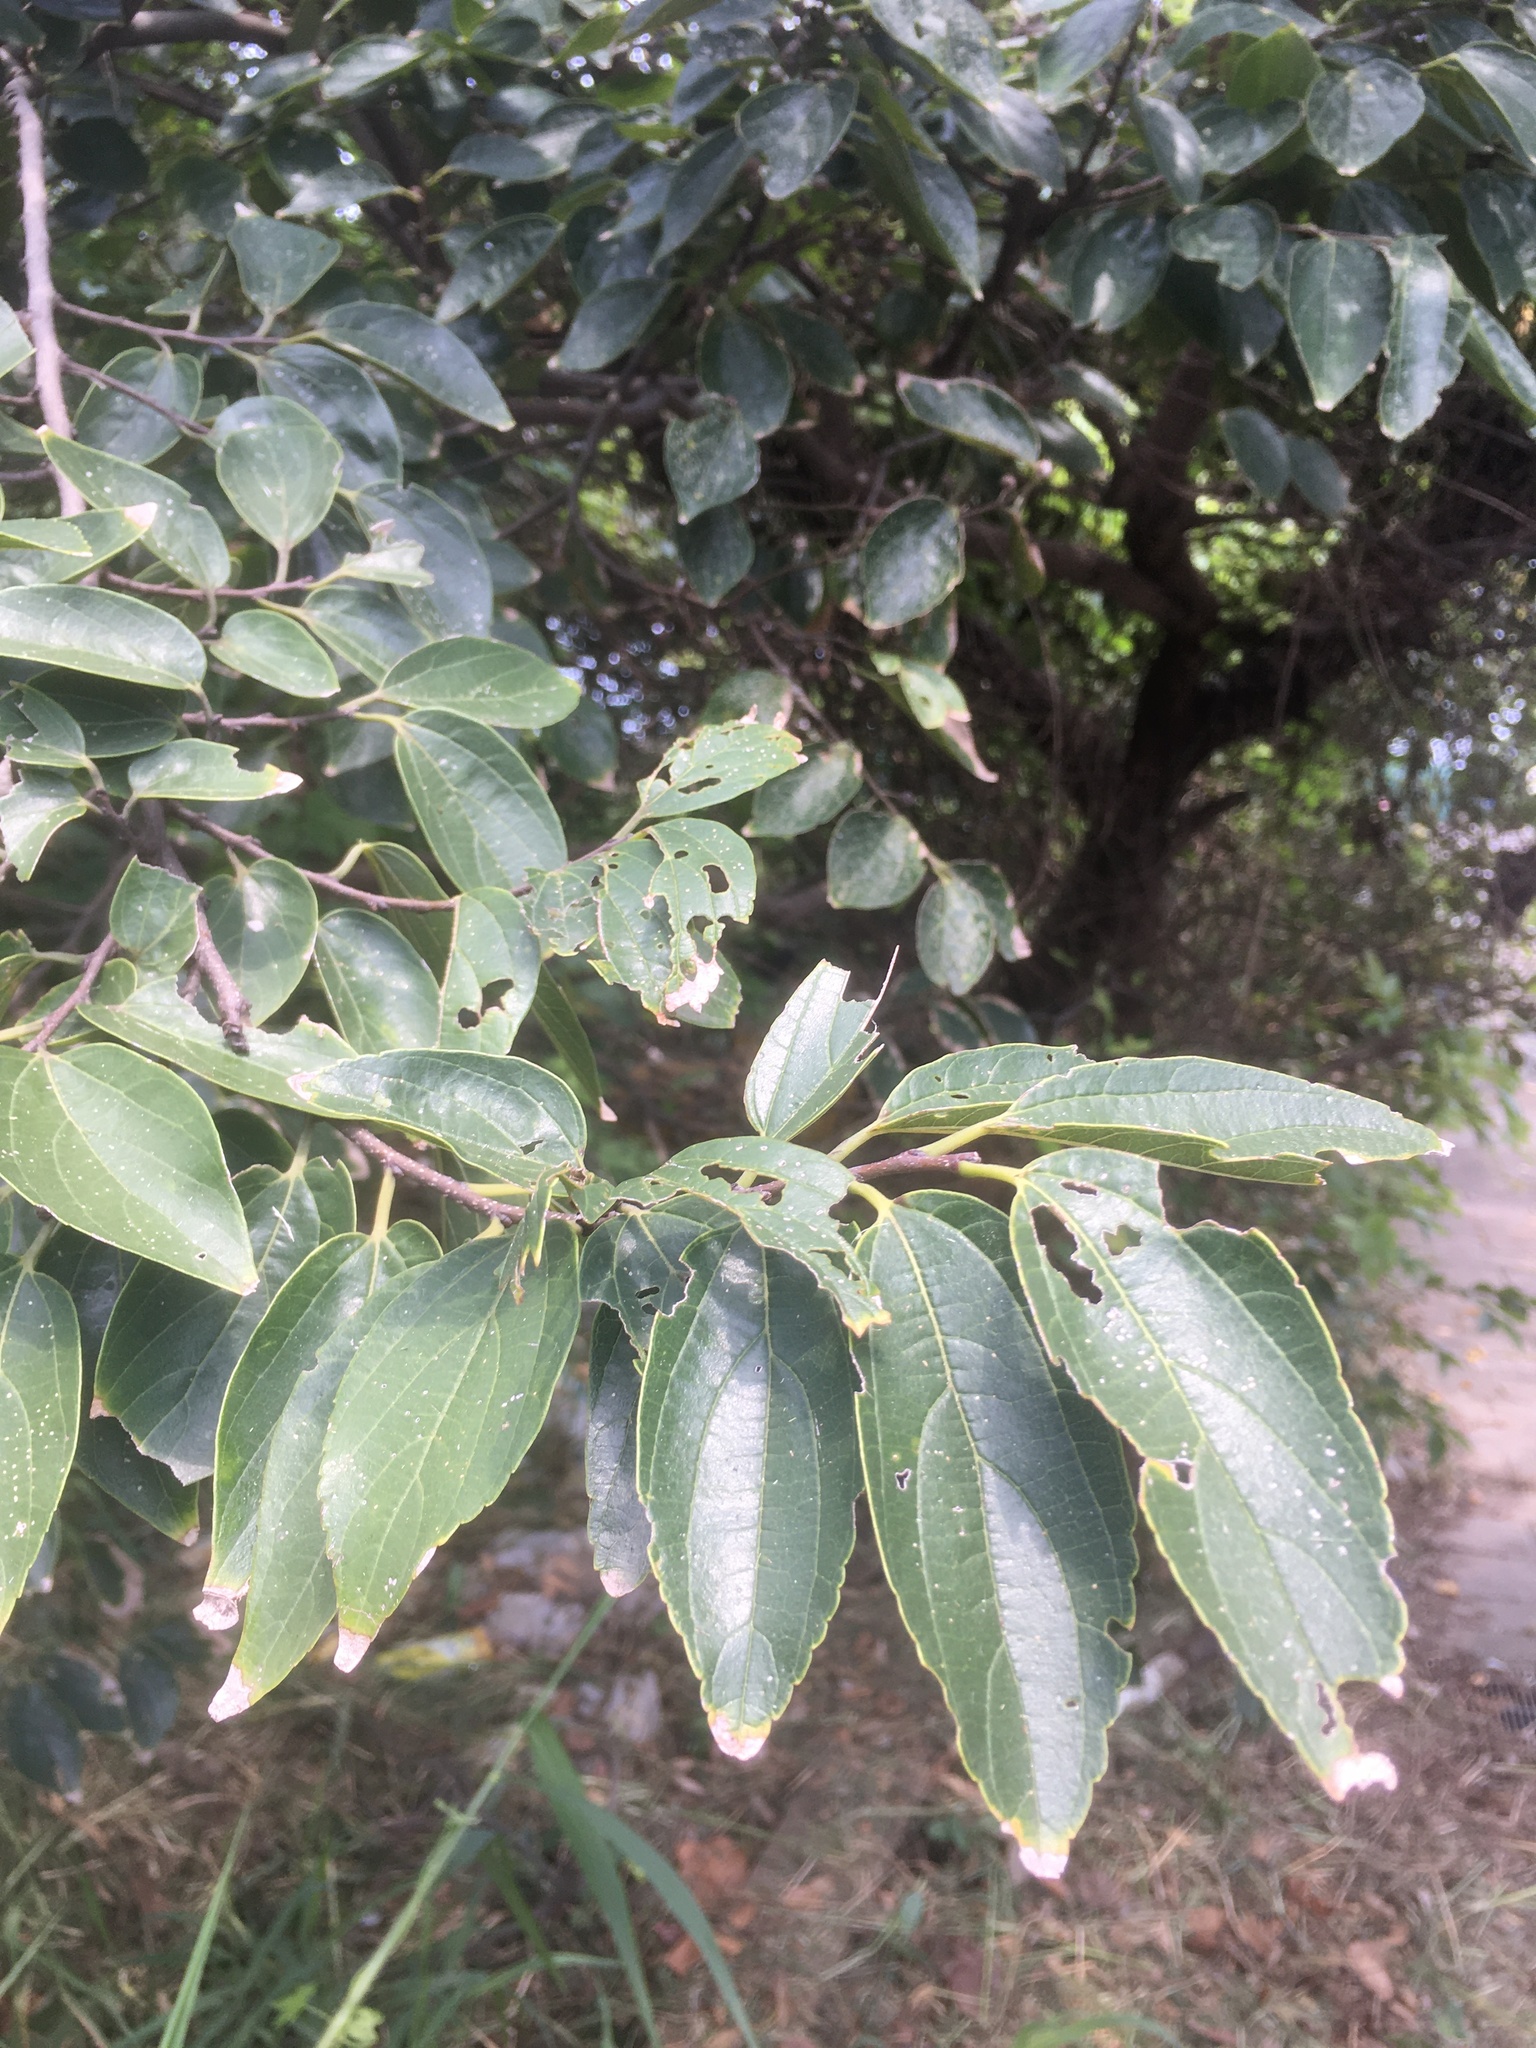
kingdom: Plantae
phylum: Tracheophyta
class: Magnoliopsida
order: Rosales
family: Cannabaceae
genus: Celtis
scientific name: Celtis sinensis
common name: Chinese hackberry
